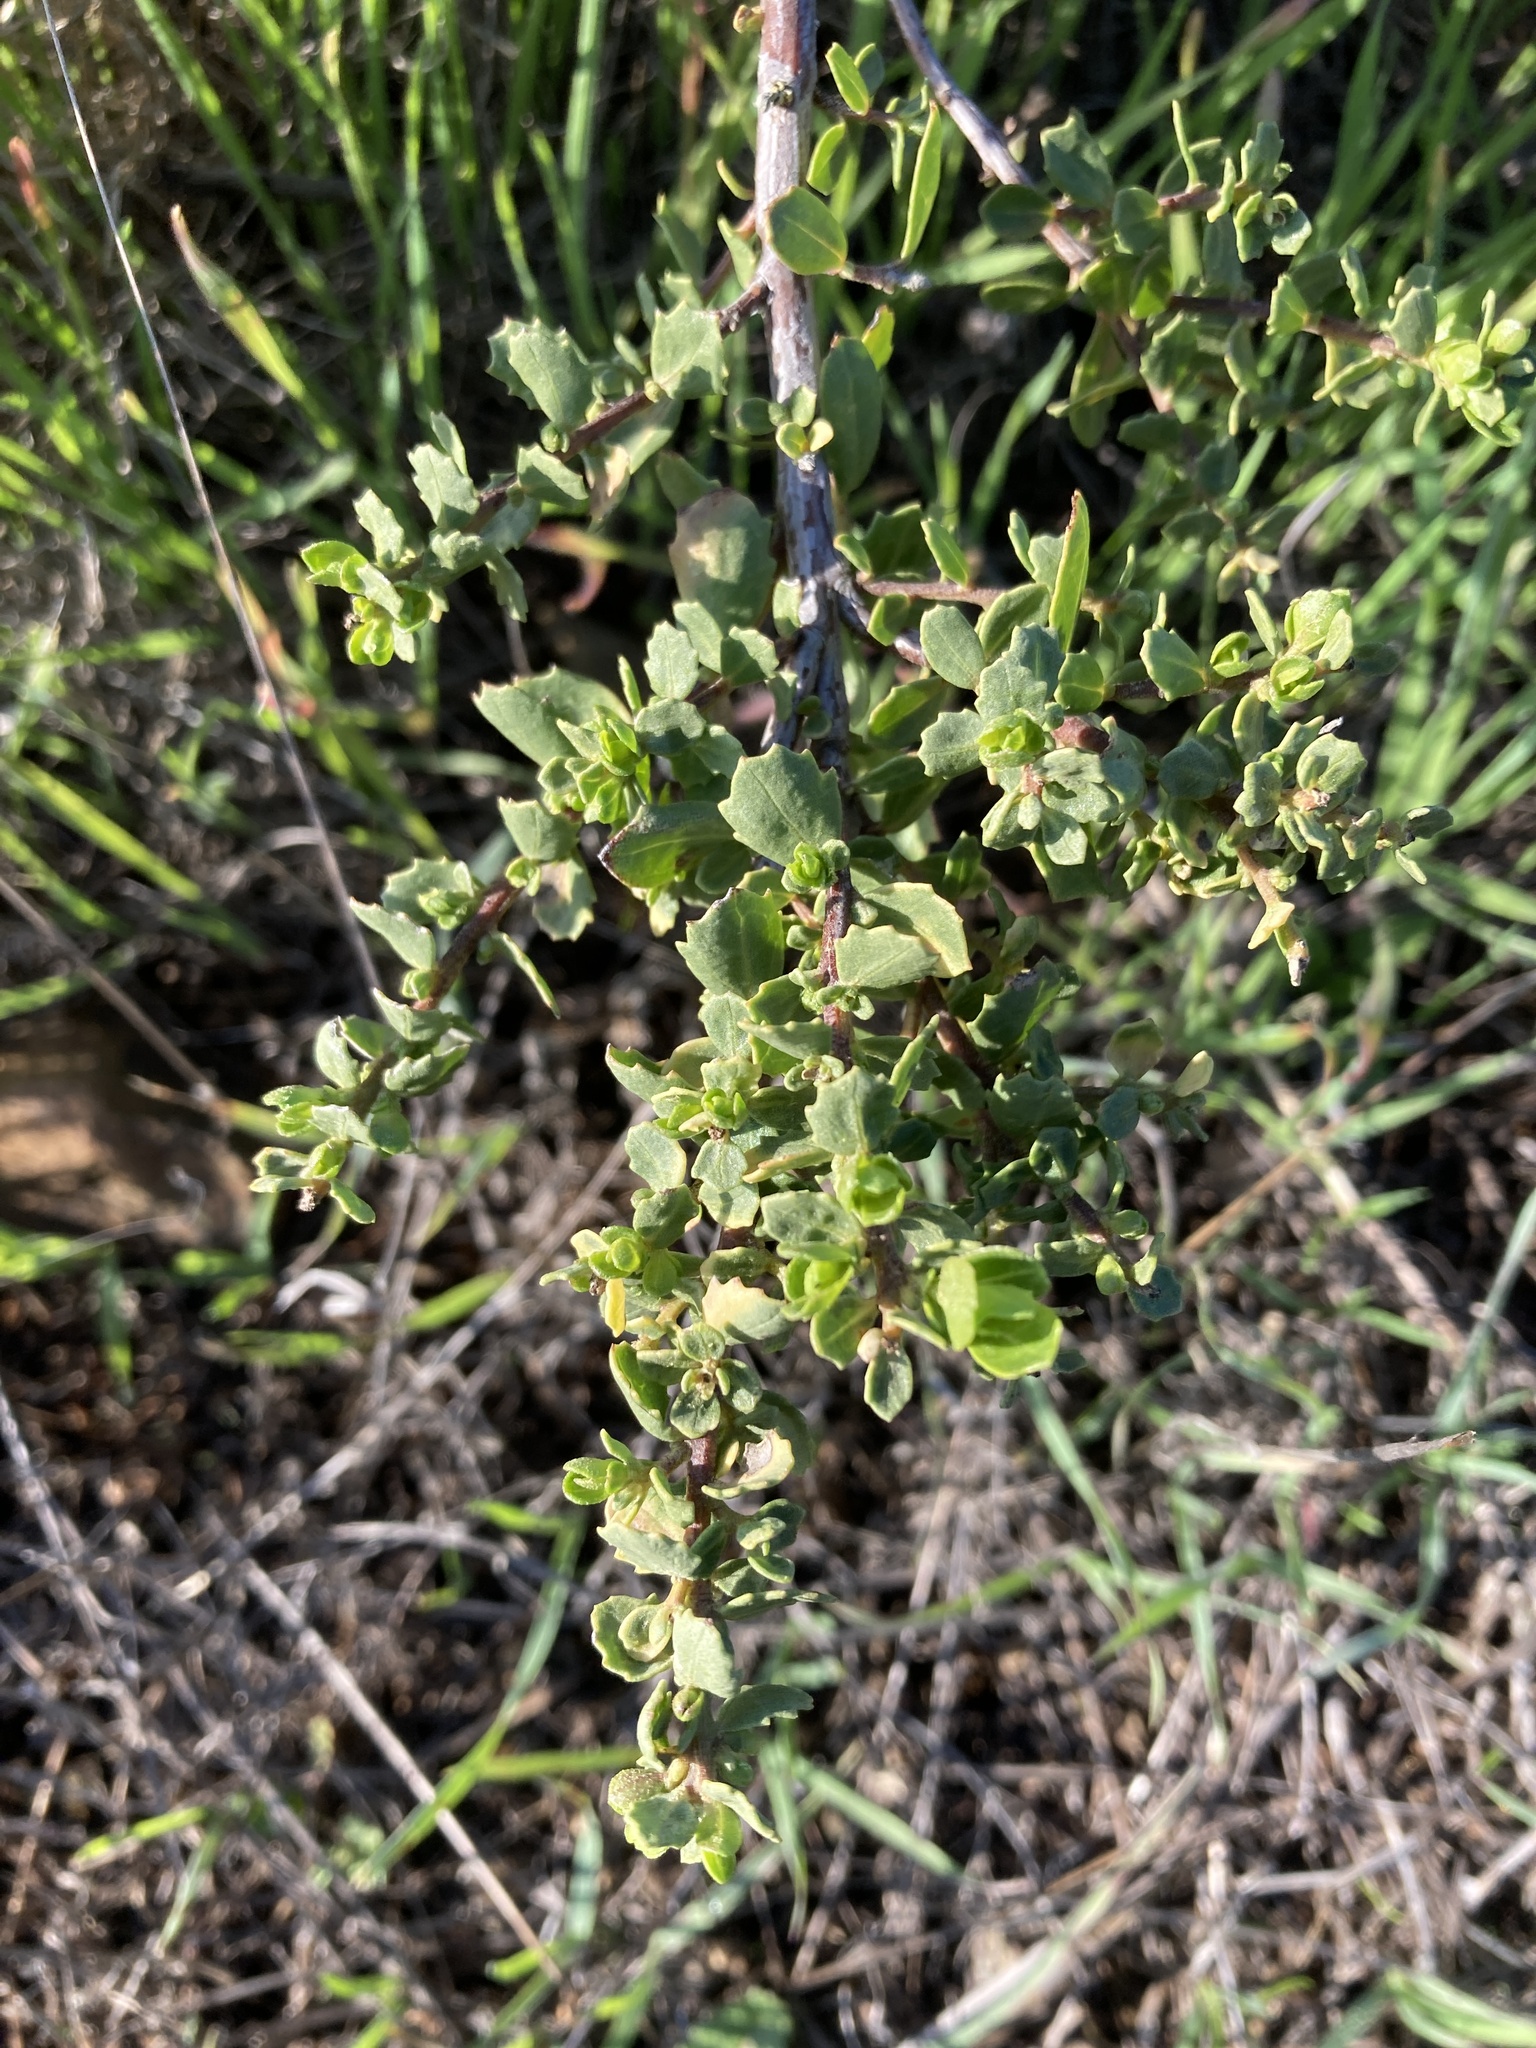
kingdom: Plantae
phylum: Tracheophyta
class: Magnoliopsida
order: Asterales
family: Asteraceae
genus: Baccharis
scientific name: Baccharis pilularis
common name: Coyotebrush
